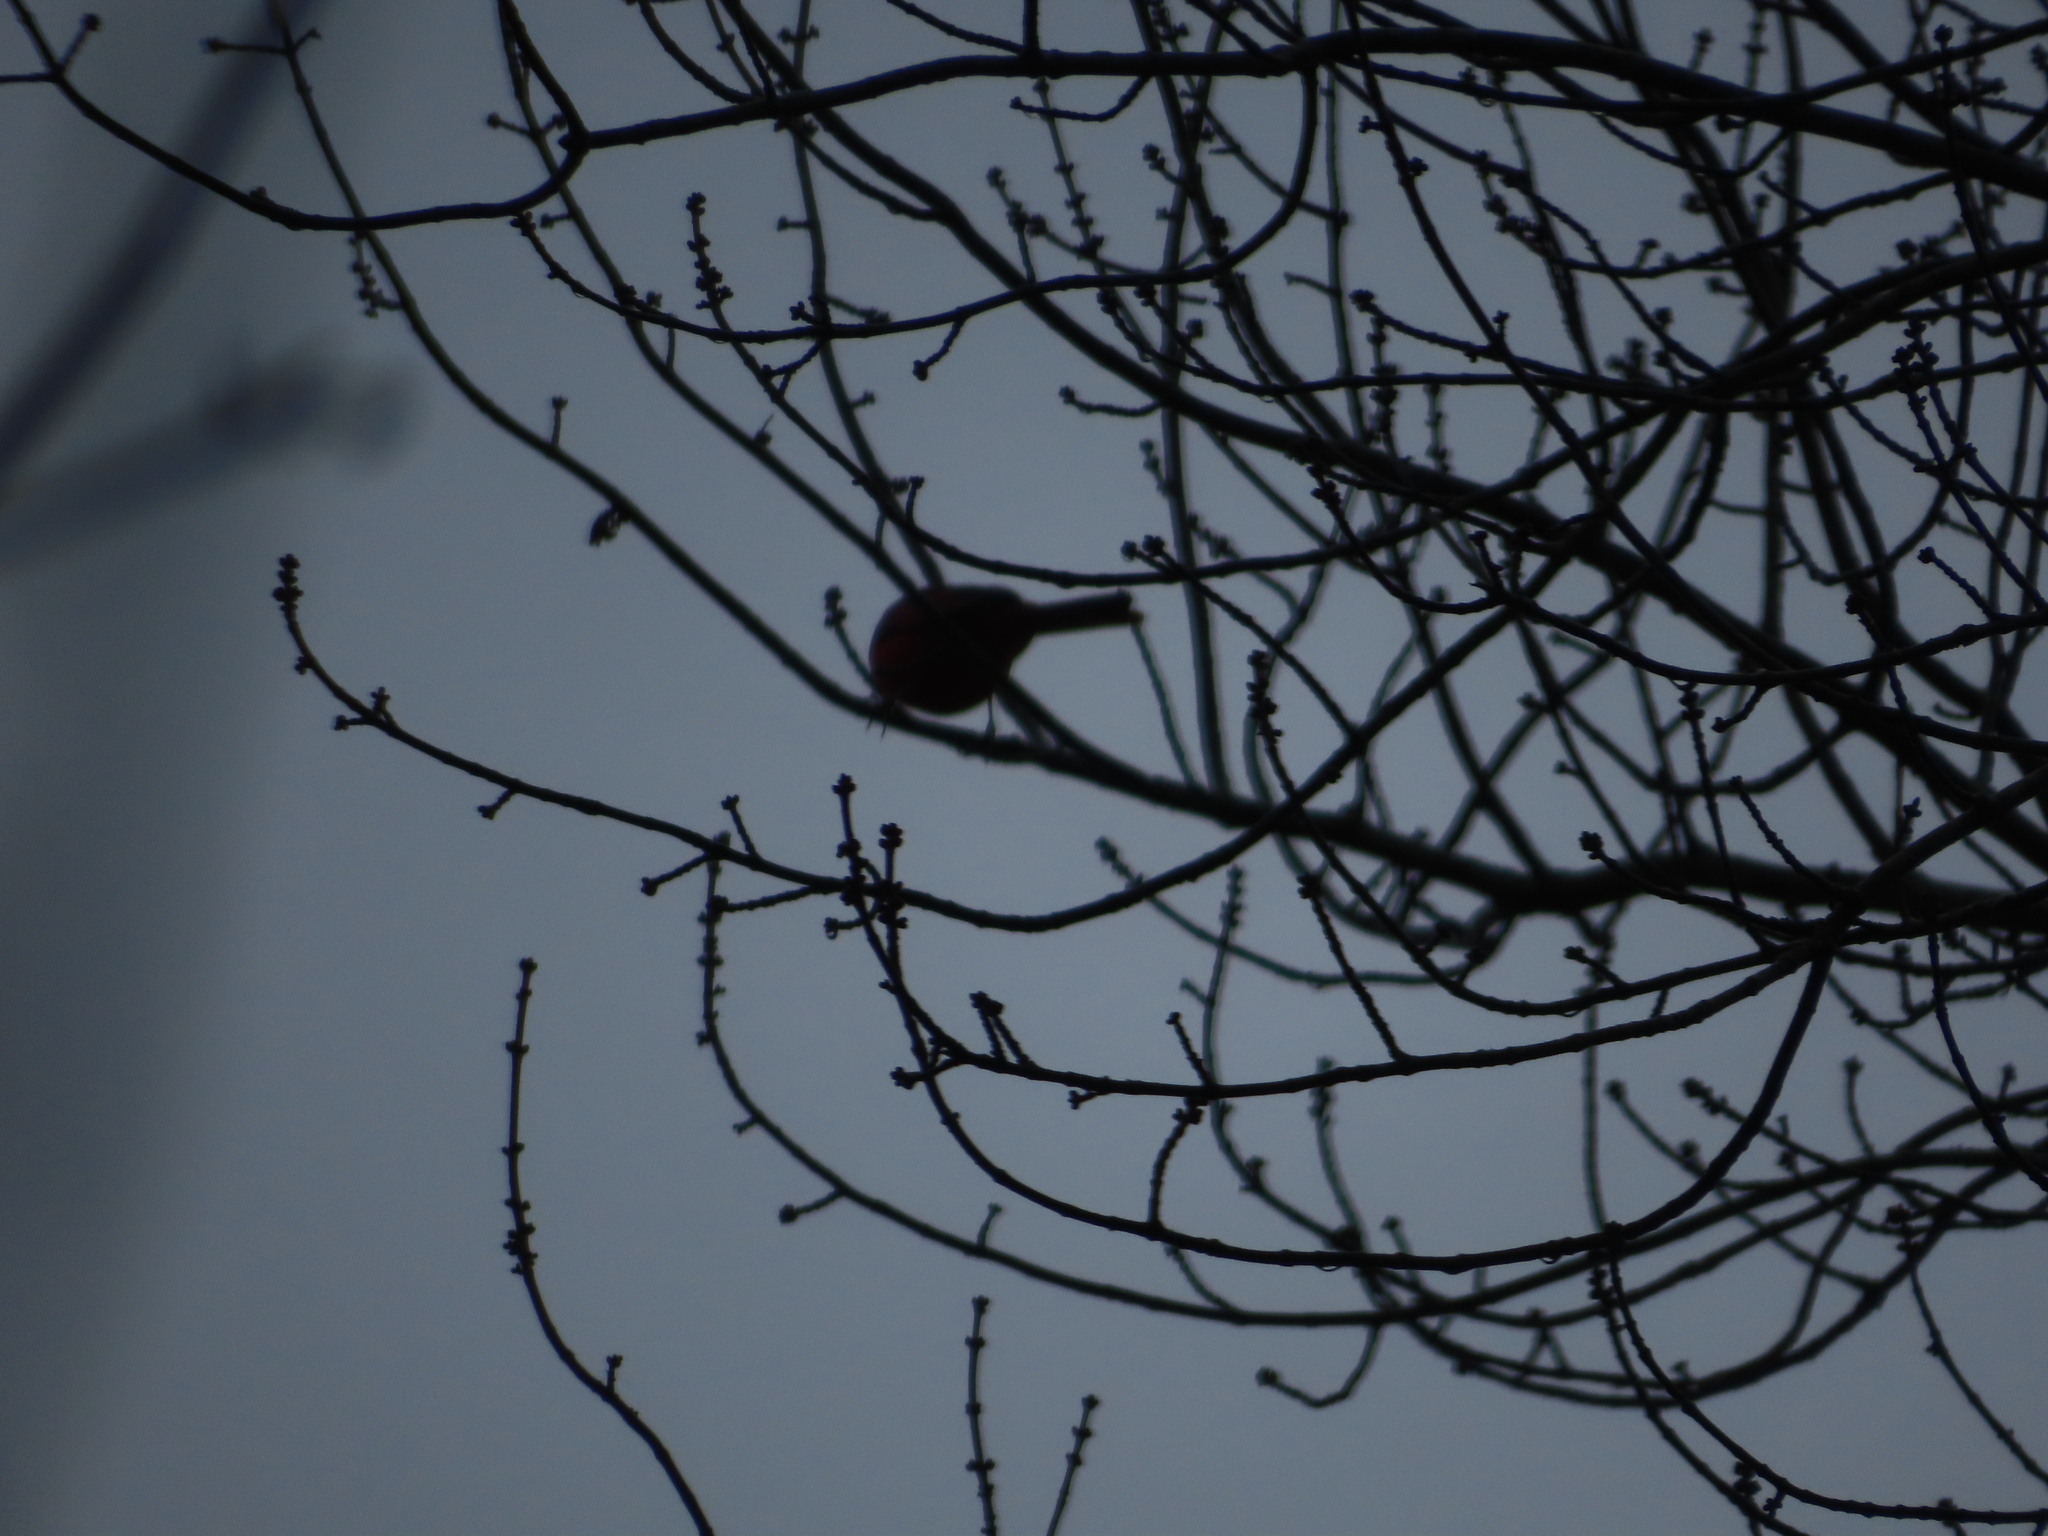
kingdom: Animalia
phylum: Chordata
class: Aves
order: Passeriformes
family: Cardinalidae
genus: Cardinalis
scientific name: Cardinalis cardinalis
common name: Northern cardinal
